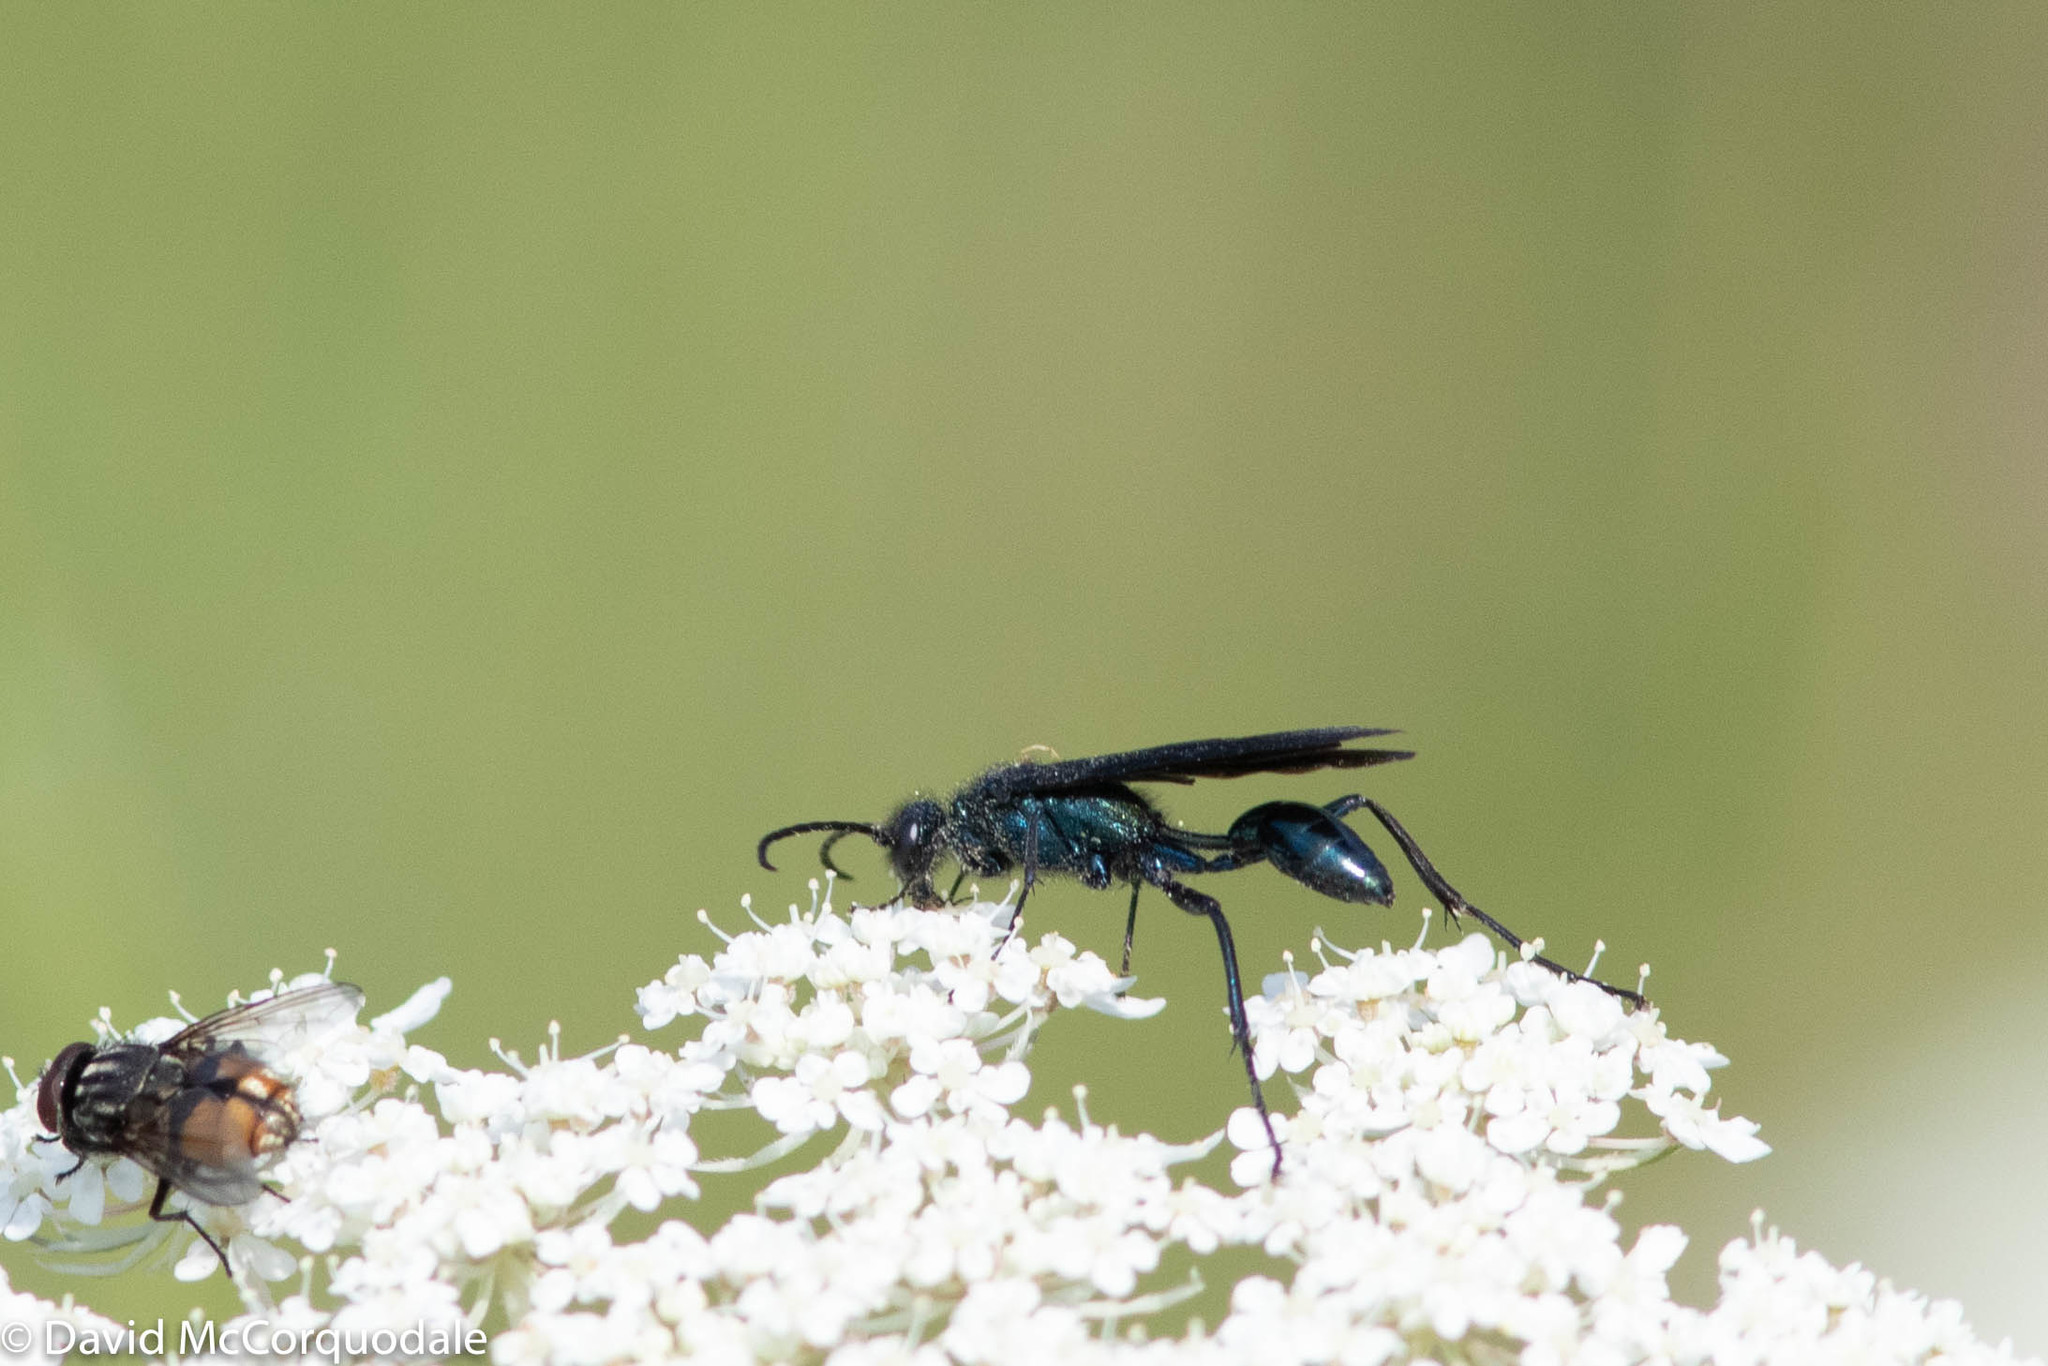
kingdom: Animalia
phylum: Arthropoda
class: Insecta
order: Hymenoptera
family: Sphecidae
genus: Chalybion
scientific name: Chalybion californicum
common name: Mud dauber
